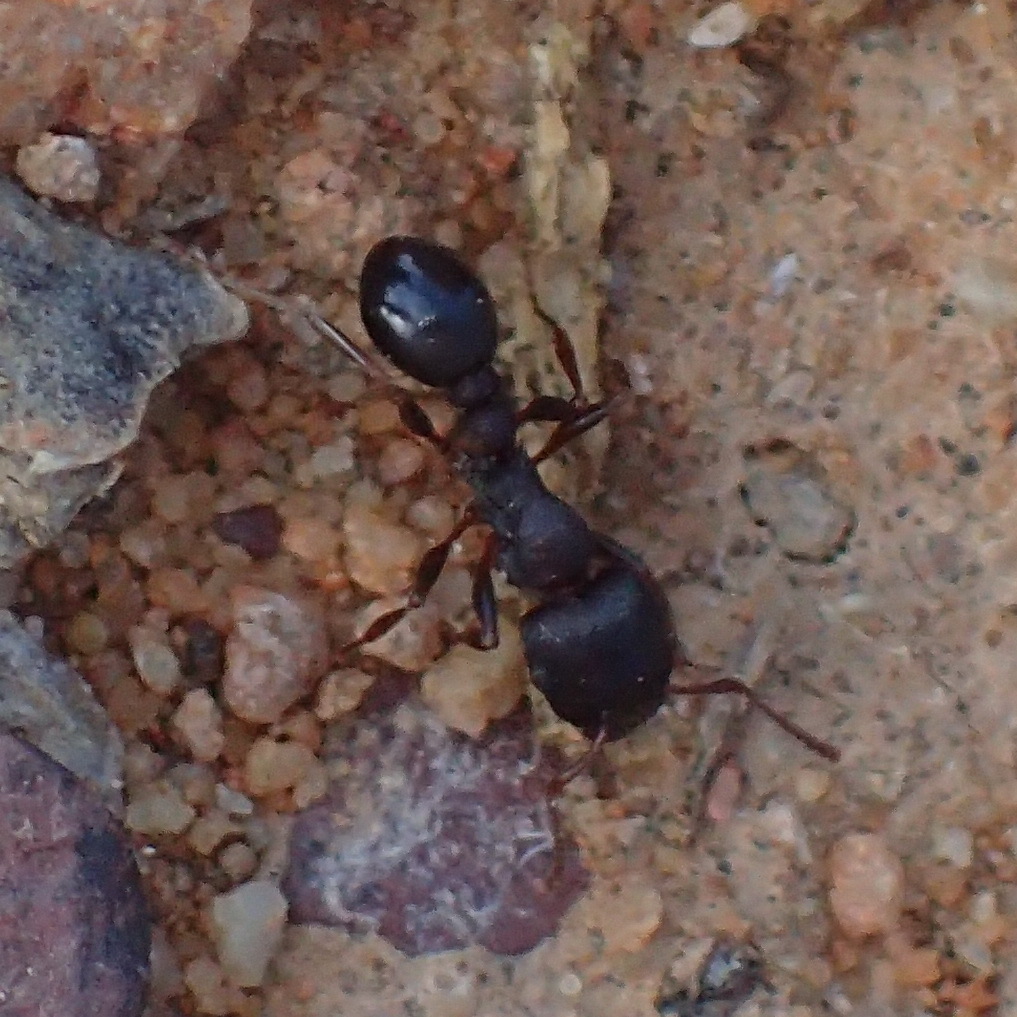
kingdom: Animalia
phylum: Arthropoda
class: Insecta
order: Hymenoptera
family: Formicidae
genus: Tetramorium
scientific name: Tetramorium solidum
